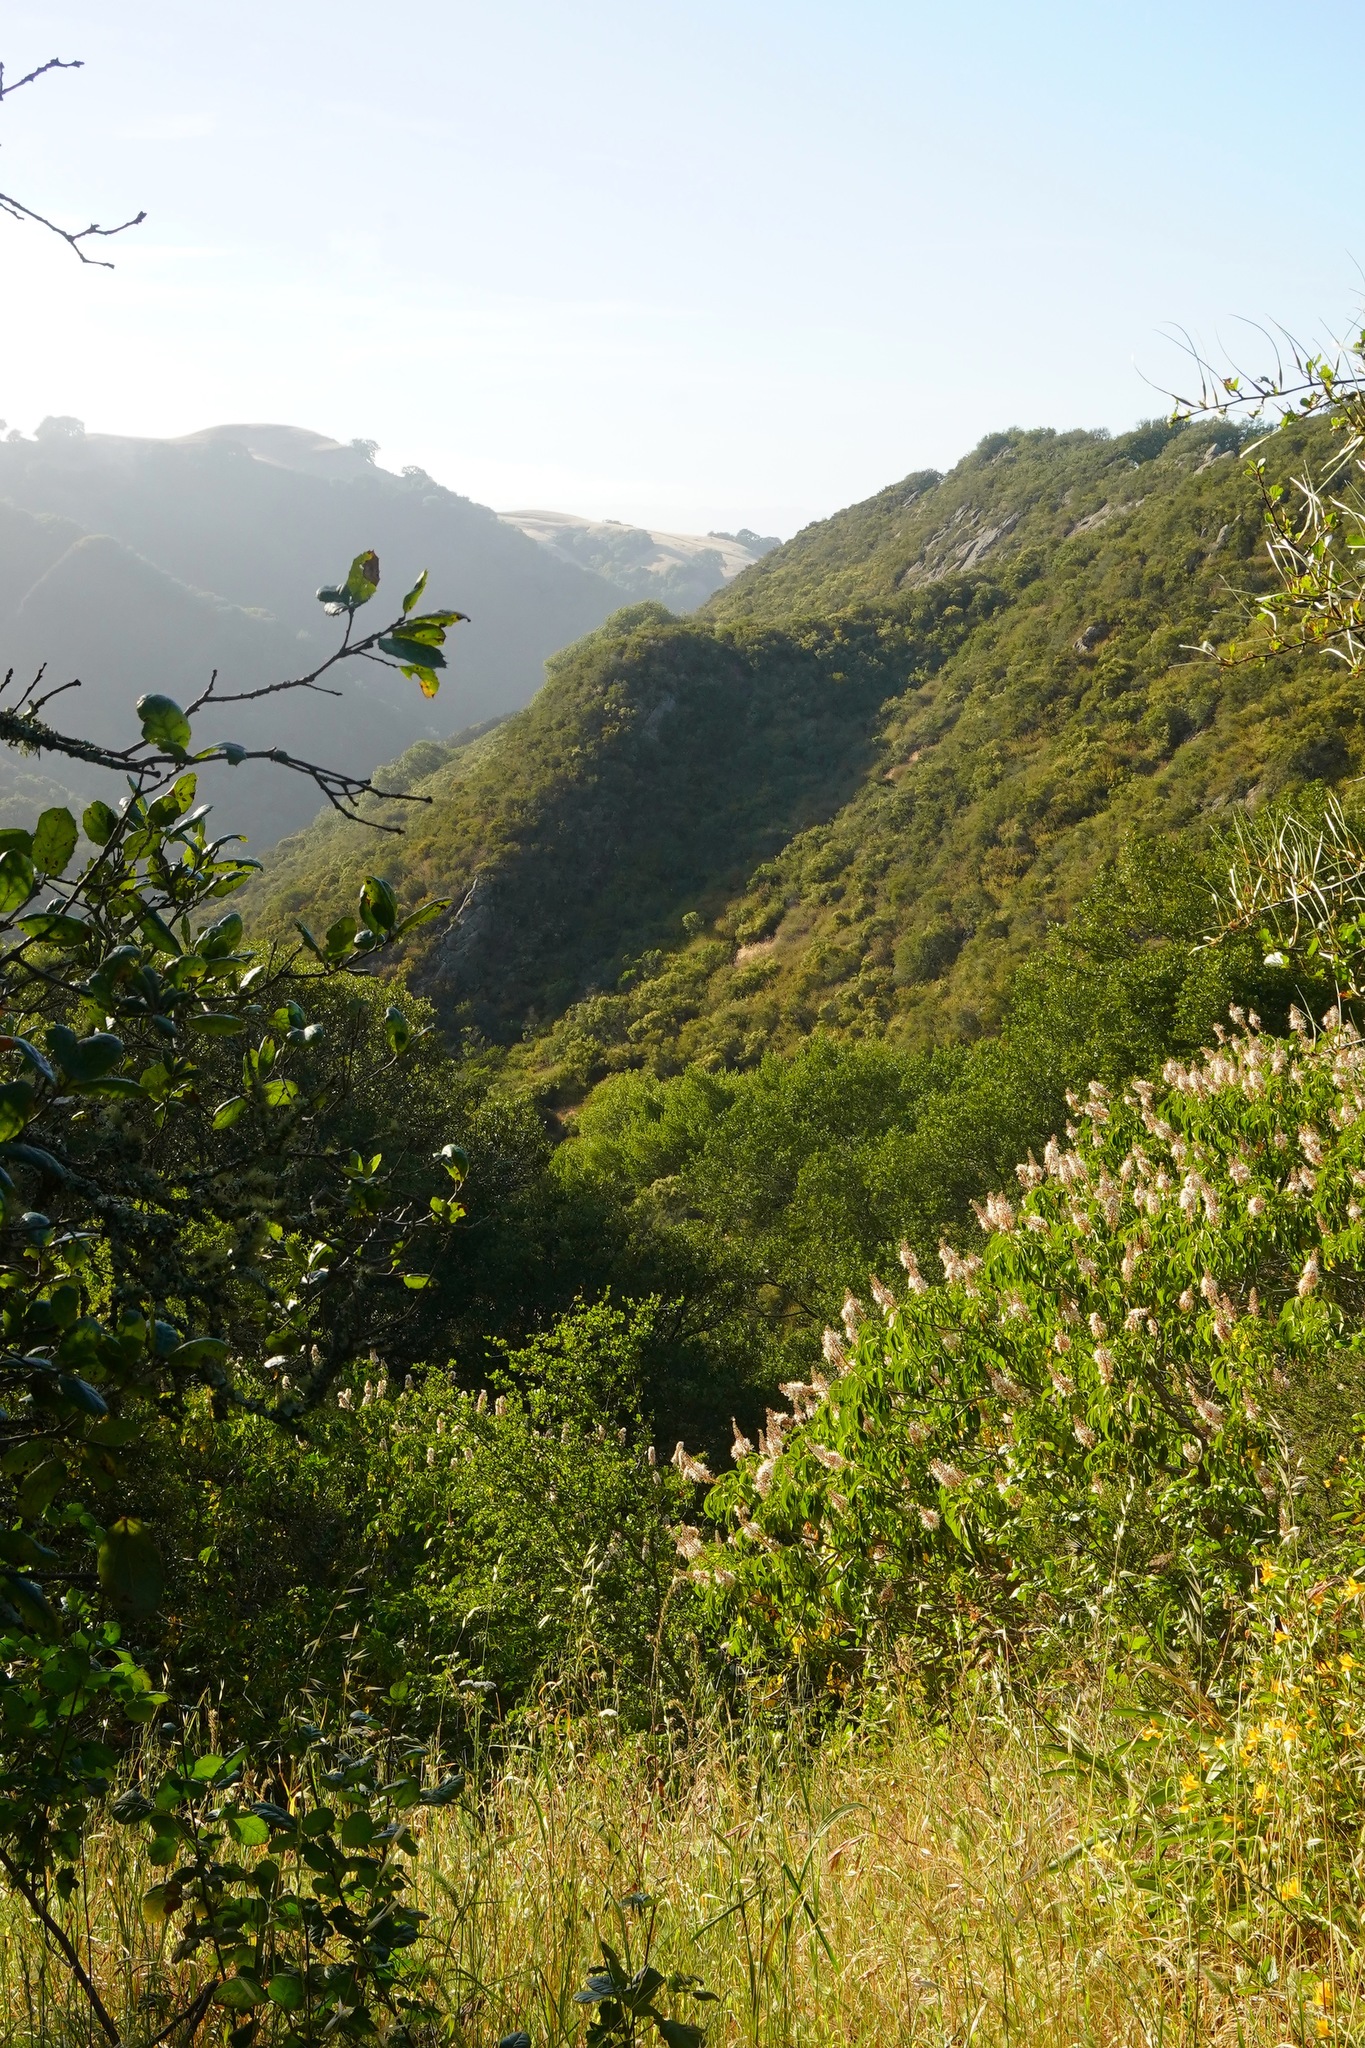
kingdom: Plantae
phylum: Tracheophyta
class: Magnoliopsida
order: Sapindales
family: Sapindaceae
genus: Aesculus
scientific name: Aesculus californica
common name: California buckeye
